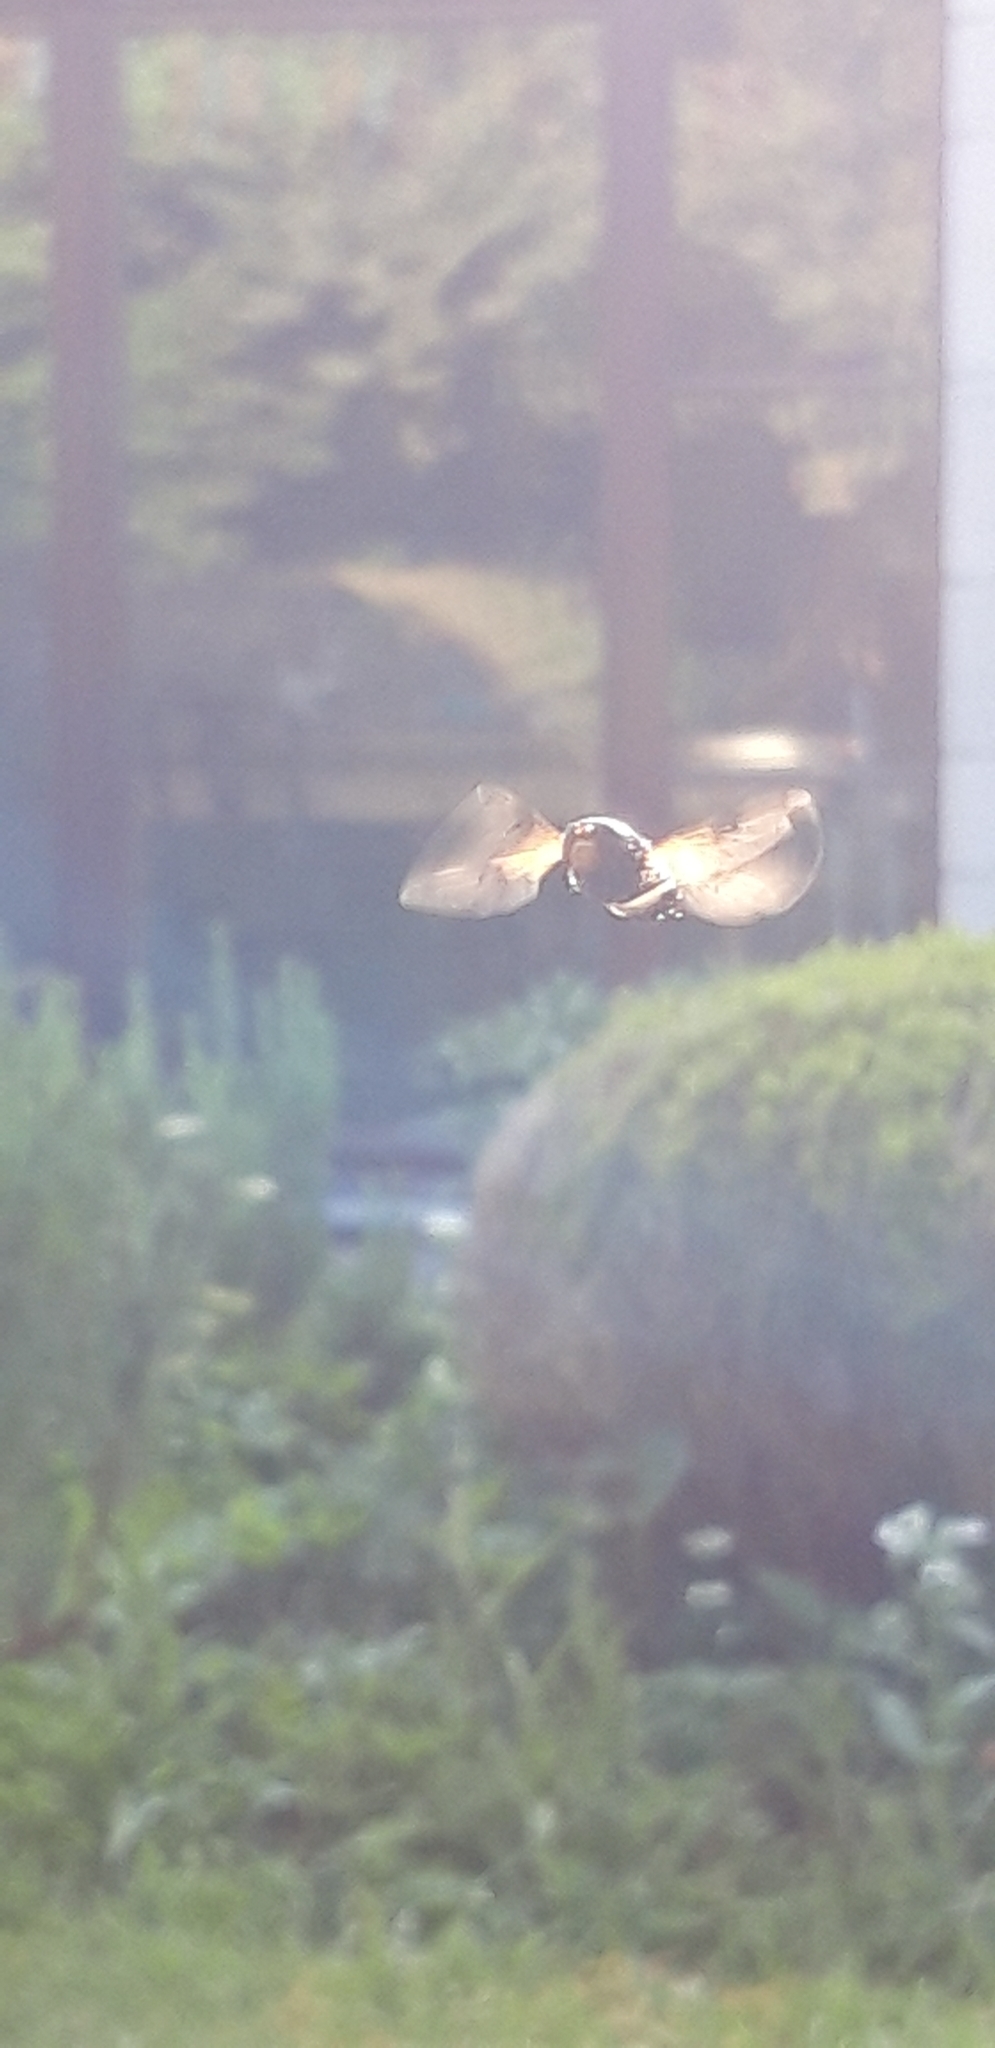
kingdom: Animalia
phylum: Arthropoda
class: Insecta
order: Diptera
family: Syrphidae
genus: Volucella
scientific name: Volucella pellucens
